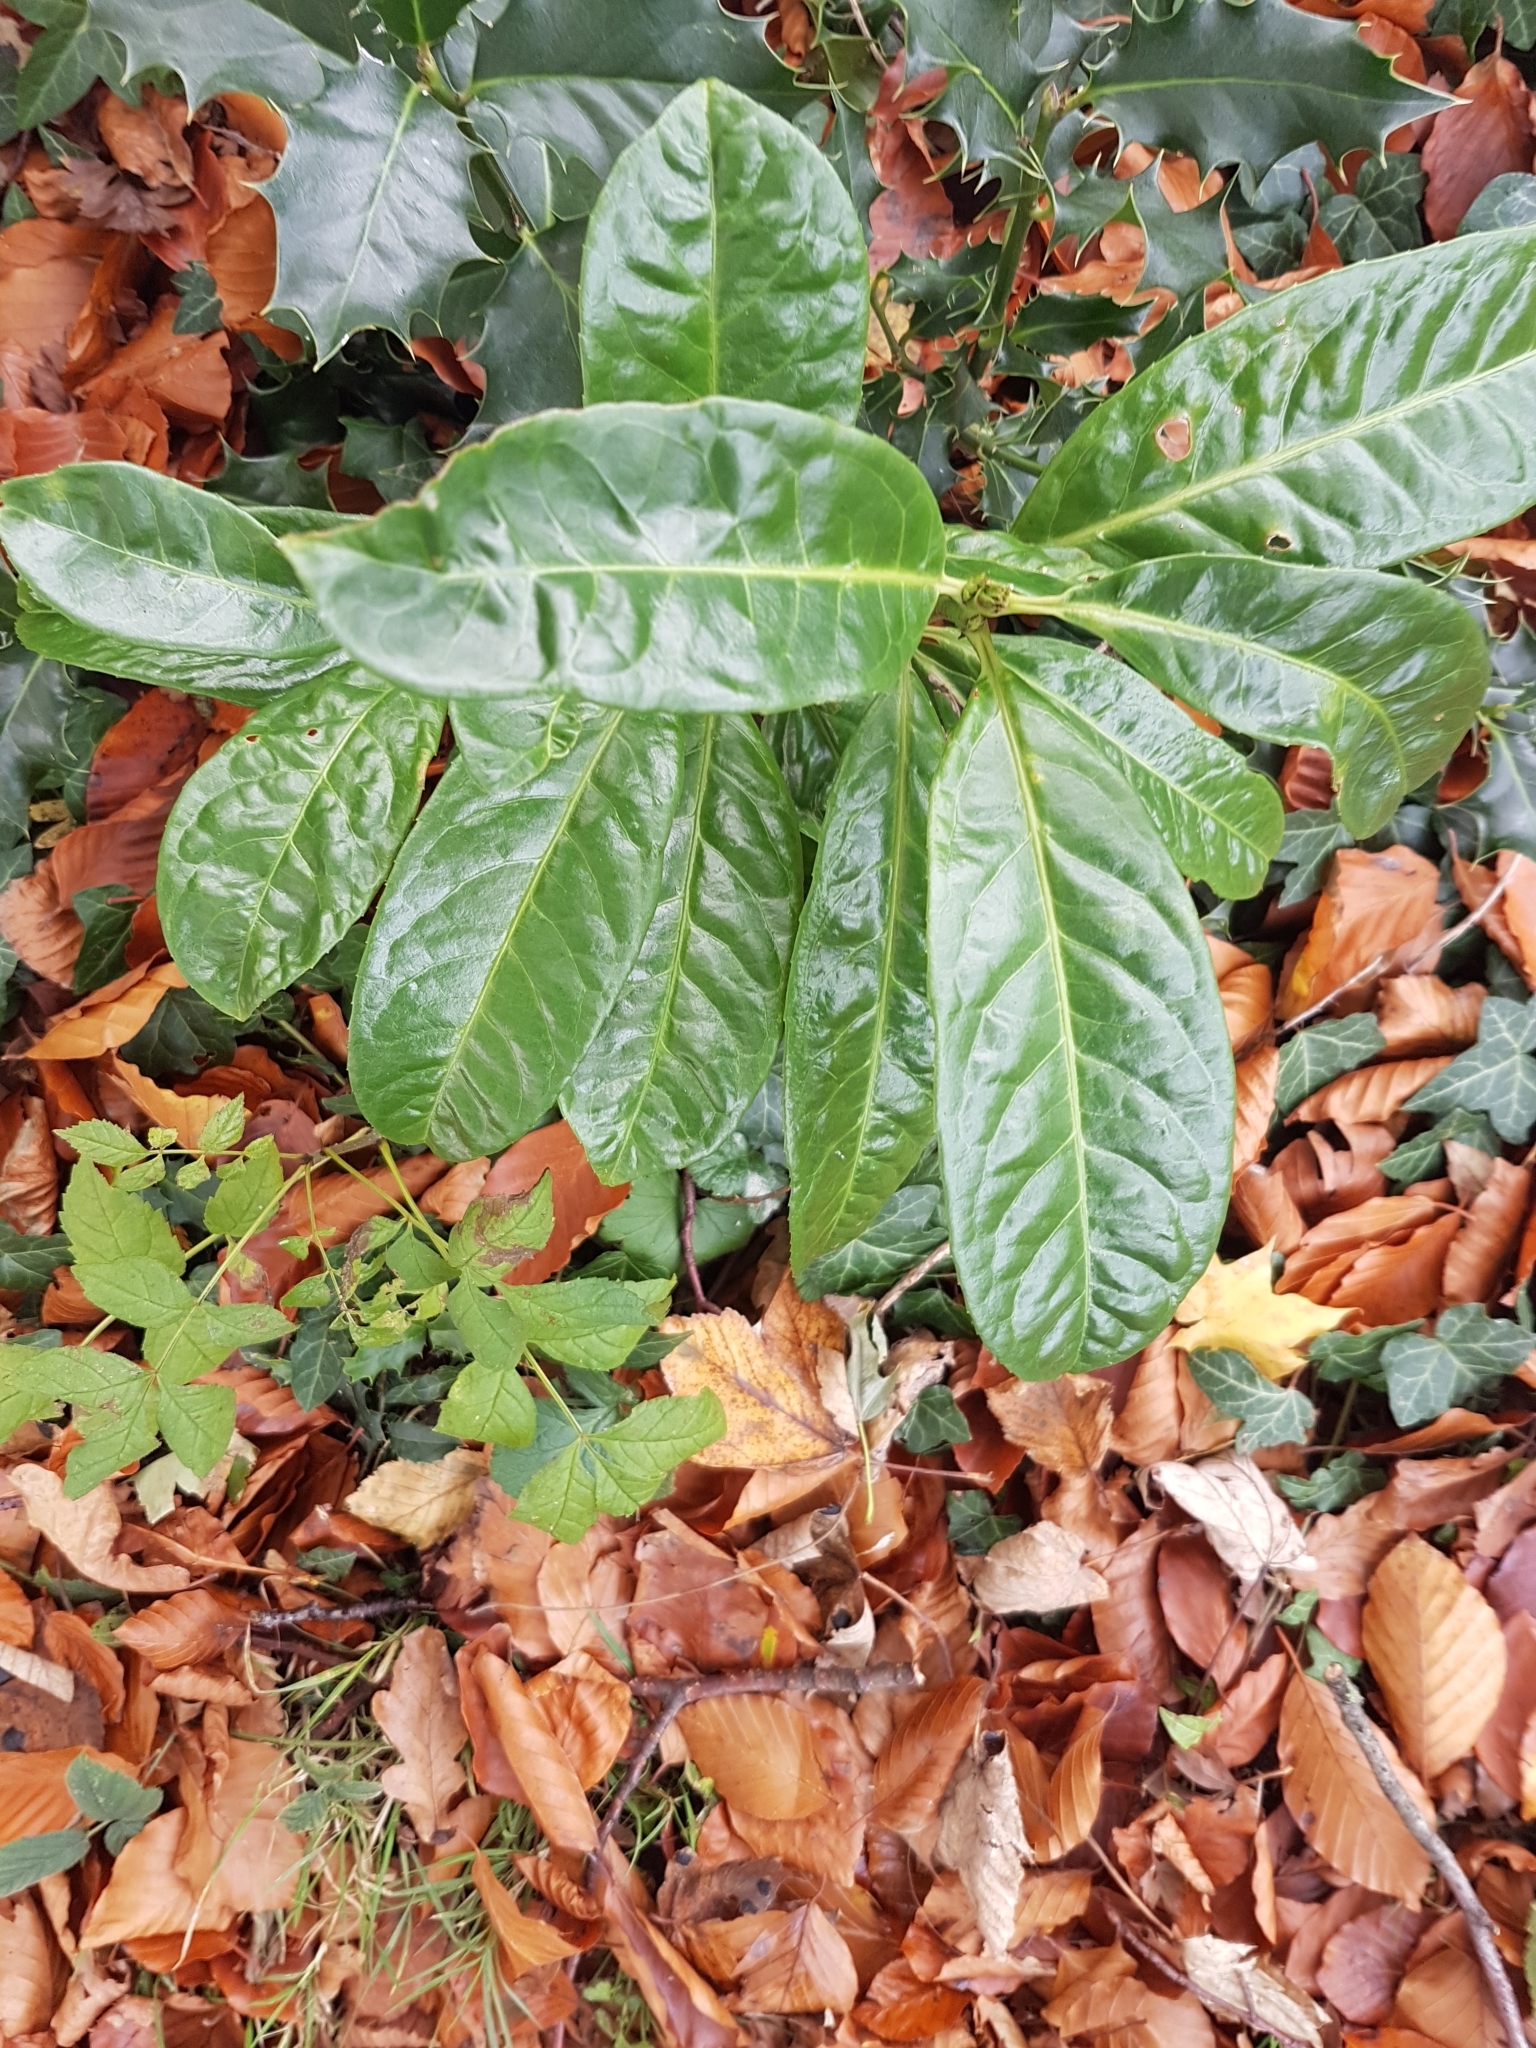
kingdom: Plantae
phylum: Tracheophyta
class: Magnoliopsida
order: Rosales
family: Rosaceae
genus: Prunus
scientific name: Prunus laurocerasus
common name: Cherry laurel
